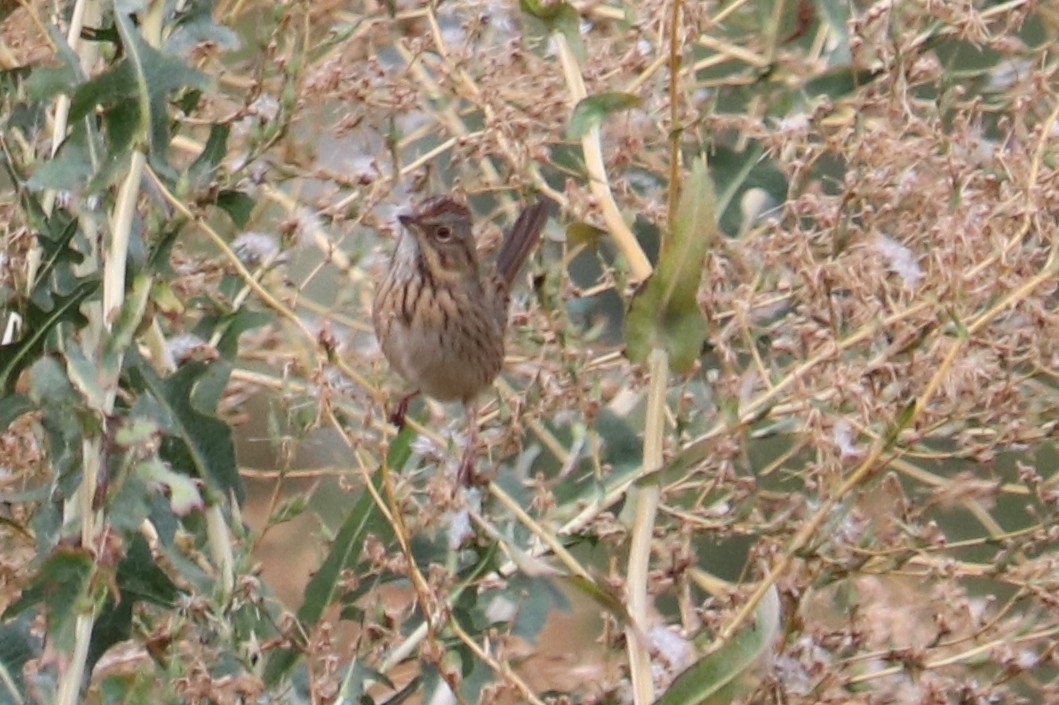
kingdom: Animalia
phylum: Chordata
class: Aves
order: Passeriformes
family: Passerellidae
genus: Melospiza
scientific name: Melospiza lincolnii
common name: Lincoln's sparrow
